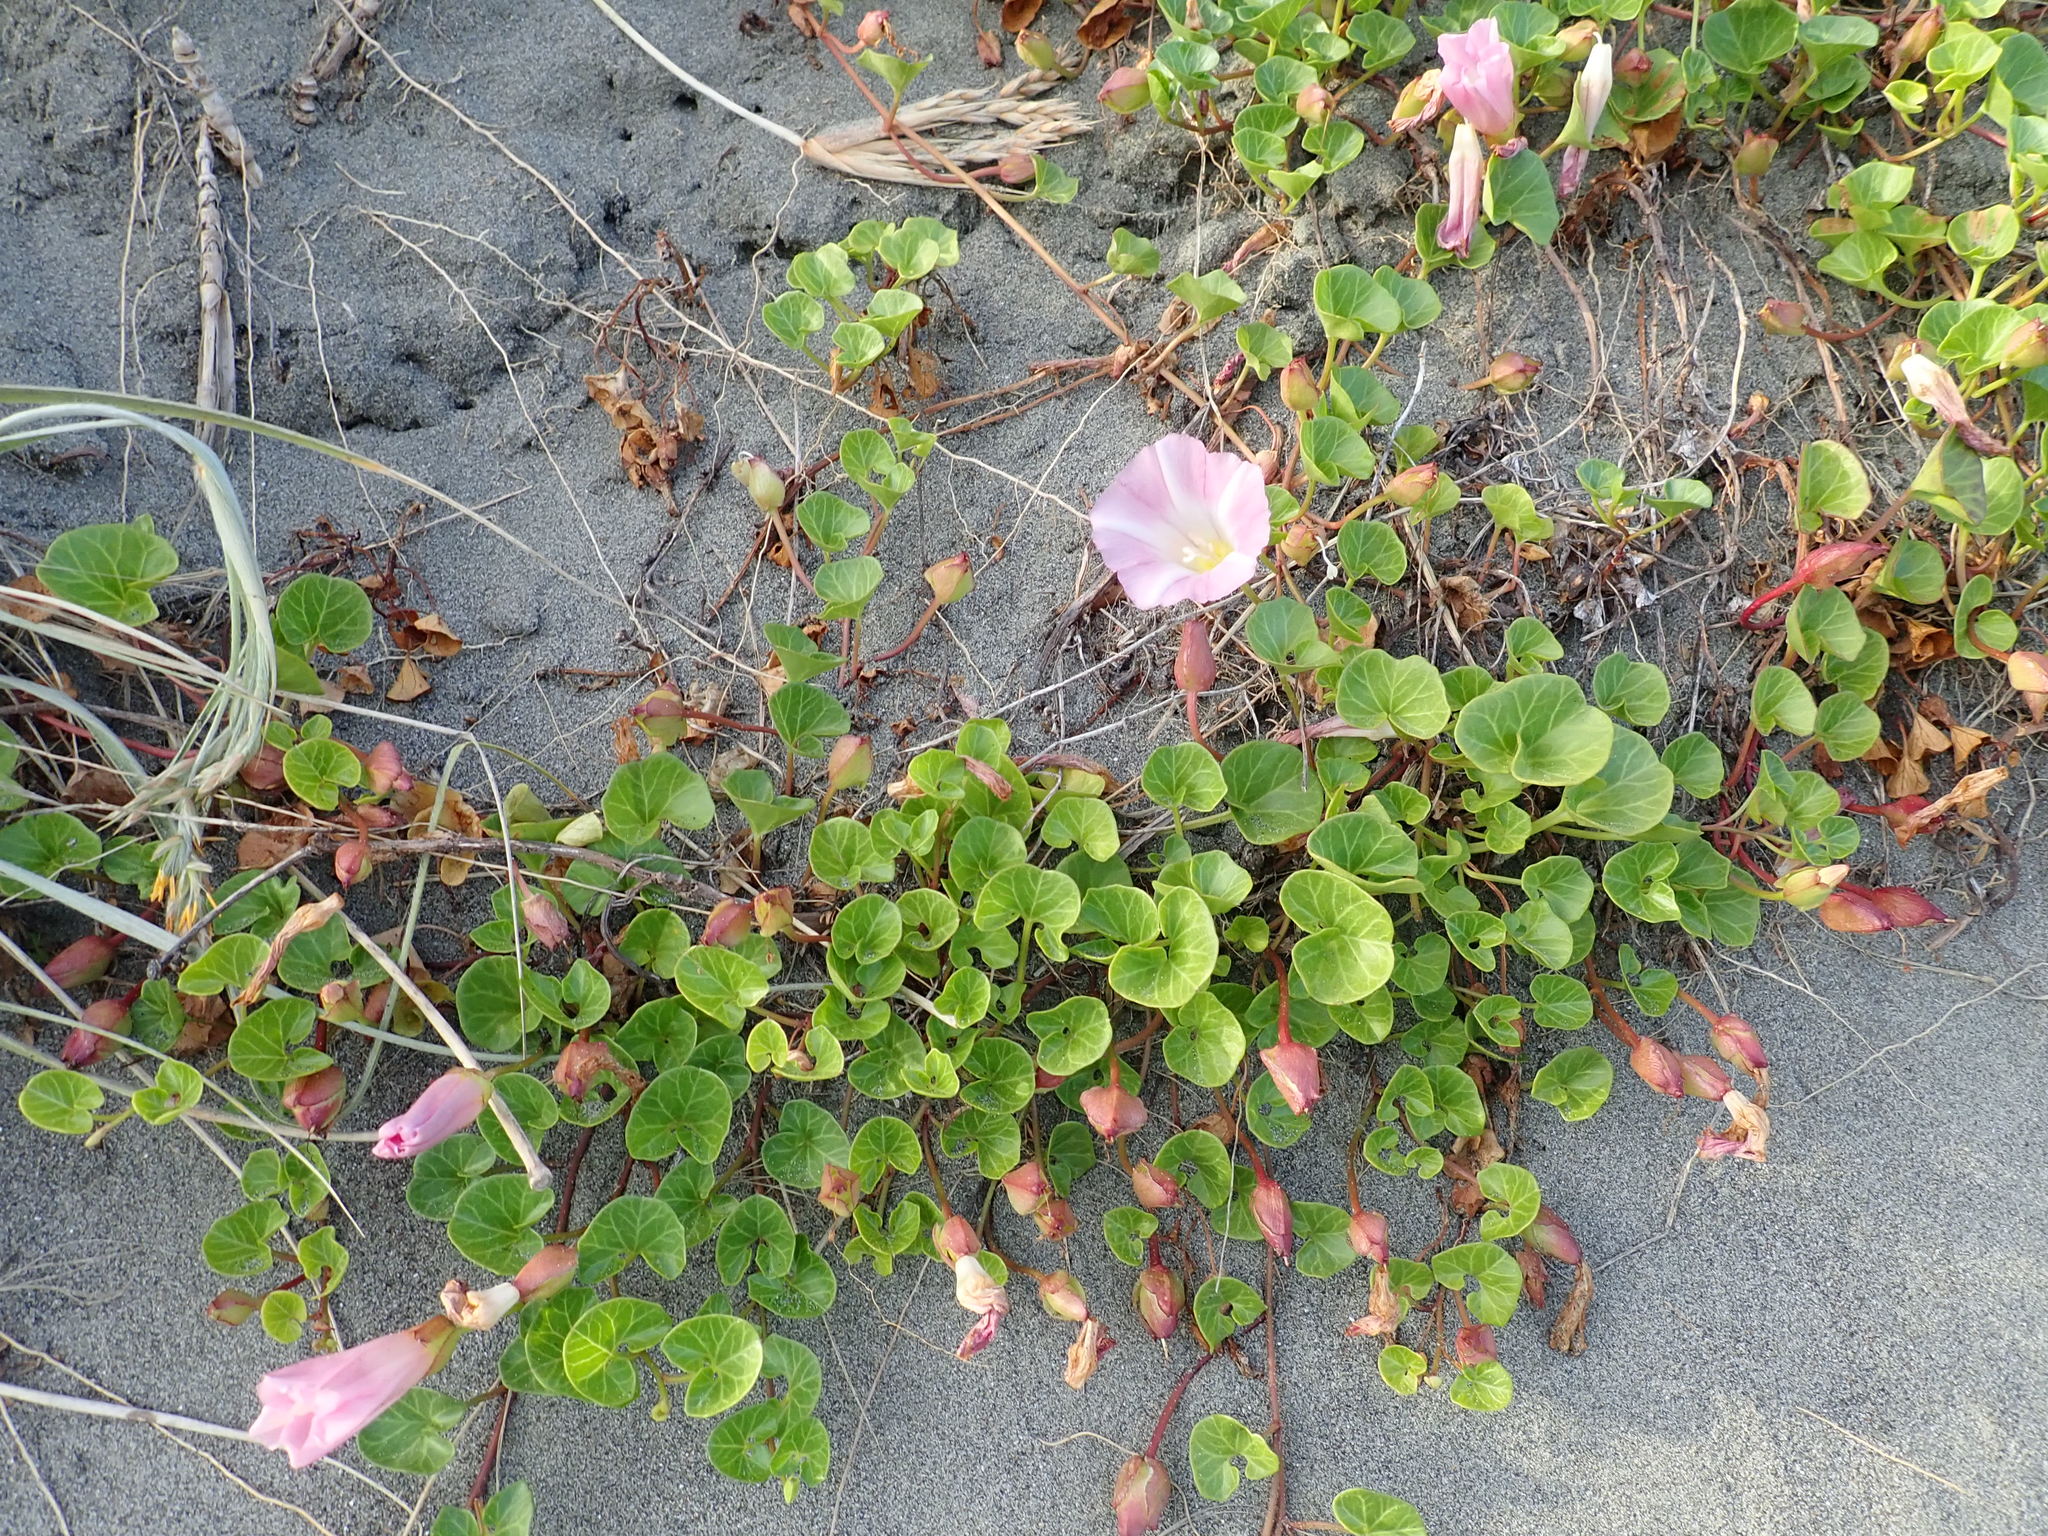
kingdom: Plantae
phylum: Tracheophyta
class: Magnoliopsida
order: Solanales
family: Convolvulaceae
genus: Calystegia
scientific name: Calystegia soldanella
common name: Sea bindweed
